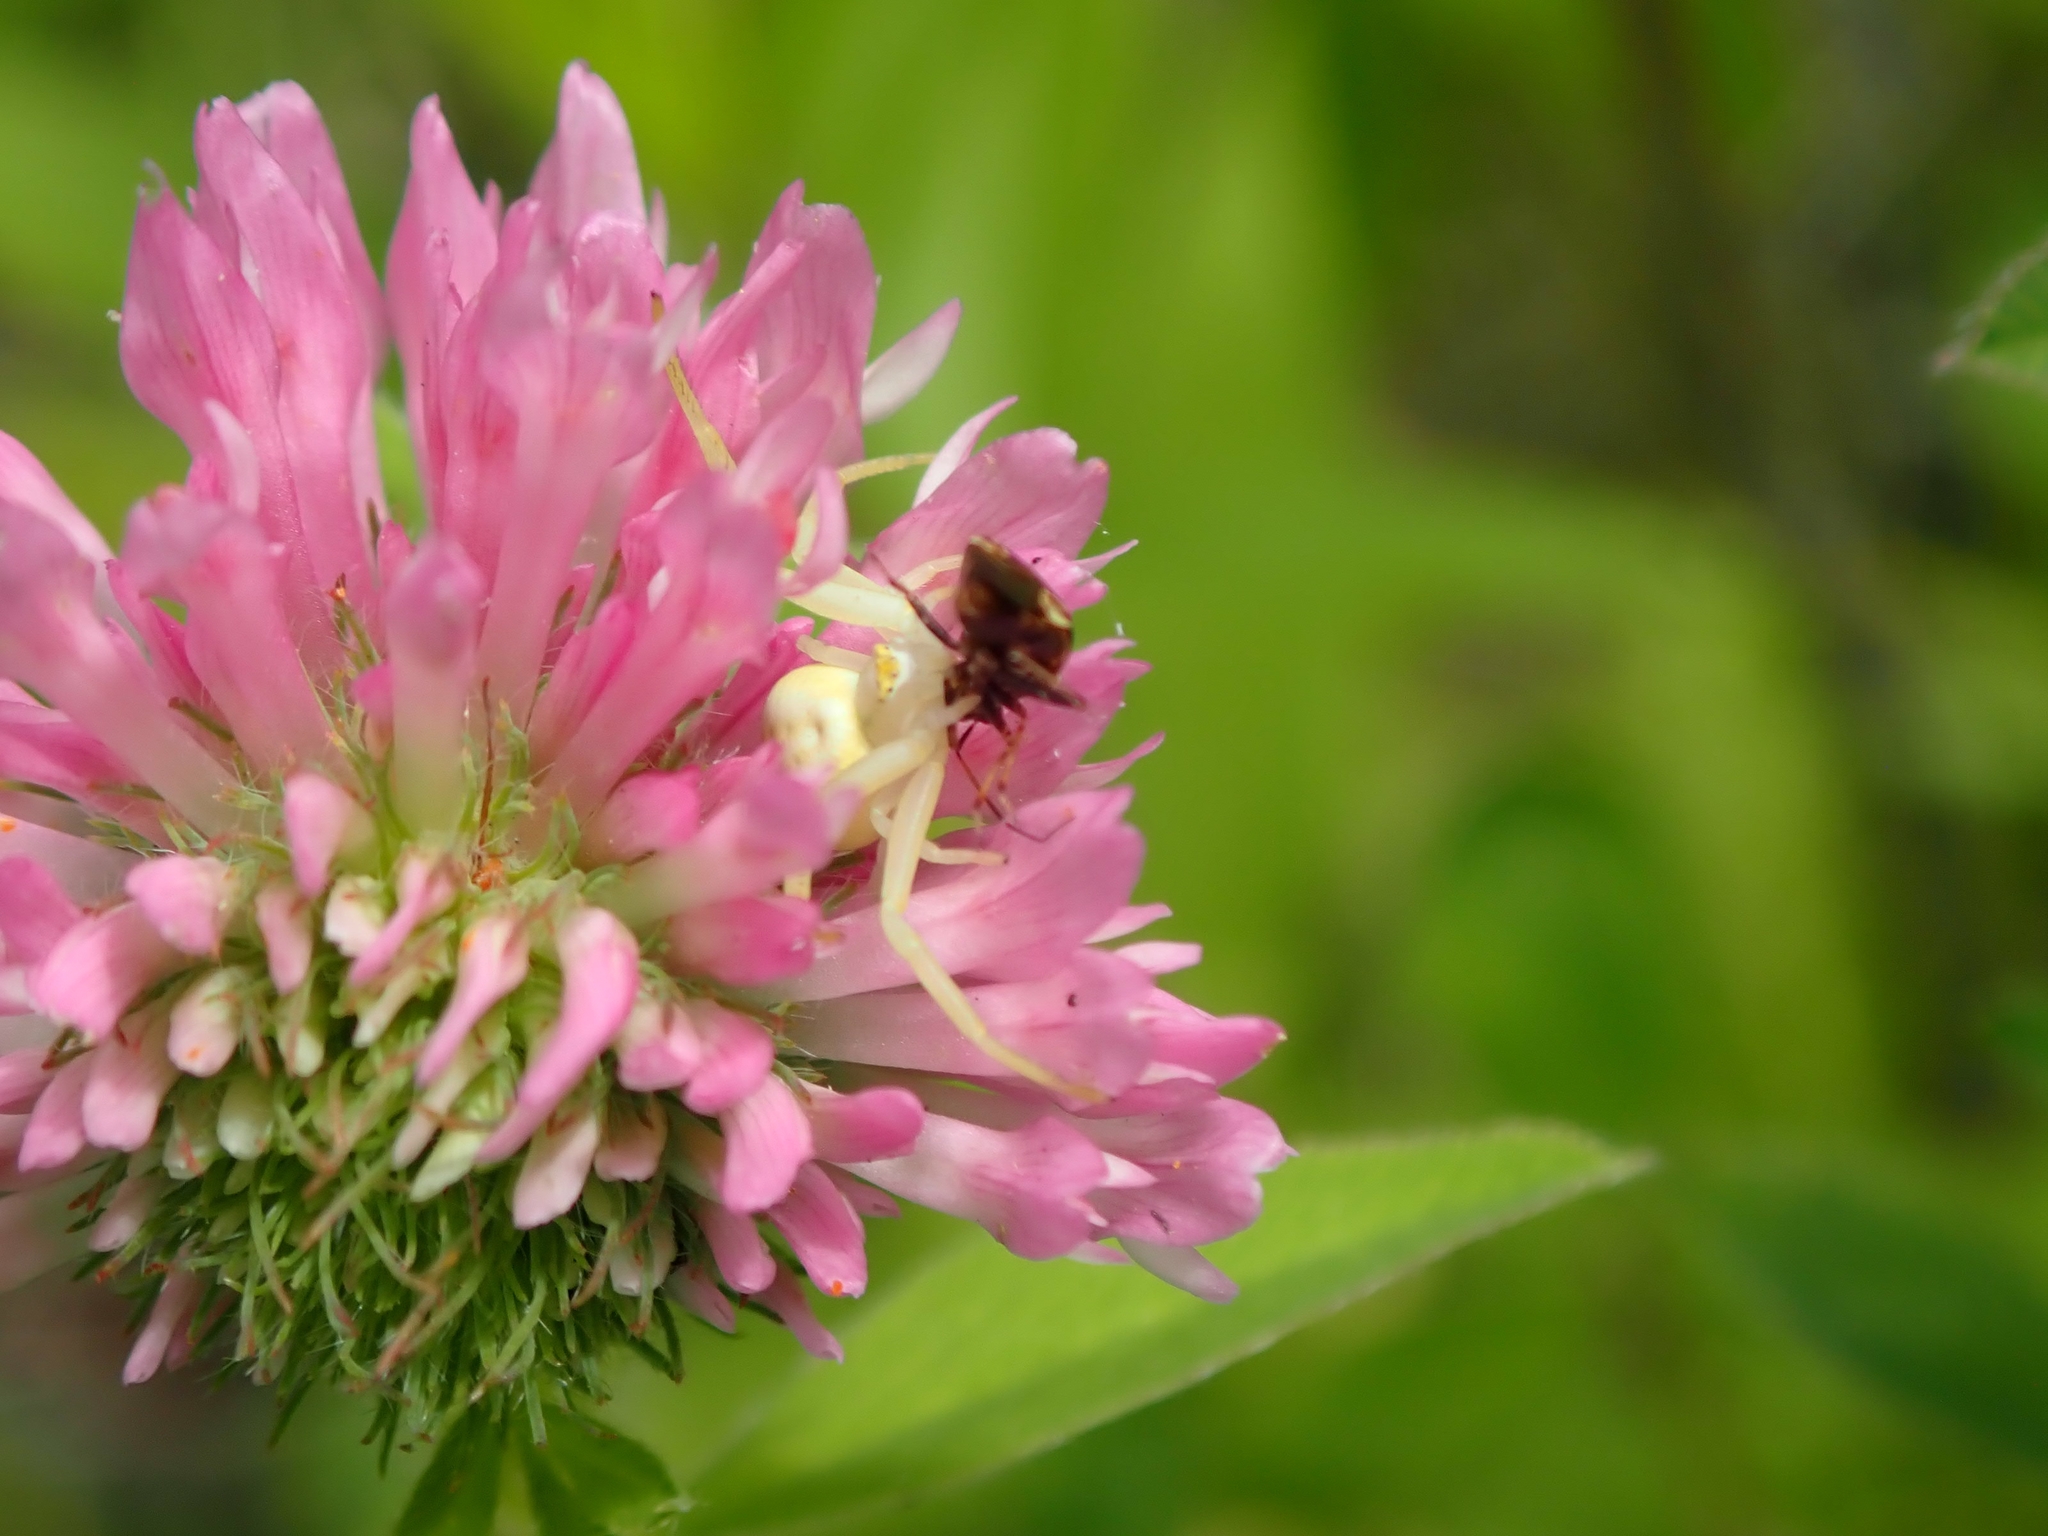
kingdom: Plantae
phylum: Tracheophyta
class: Magnoliopsida
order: Fabales
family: Fabaceae
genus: Trifolium
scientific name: Trifolium pratense
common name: Red clover
